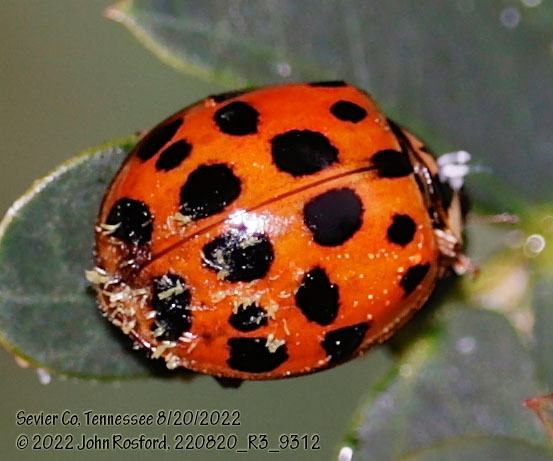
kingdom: Animalia
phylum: Arthropoda
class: Insecta
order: Coleoptera
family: Coccinellidae
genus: Harmonia
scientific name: Harmonia axyridis
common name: Harlequin ladybird
